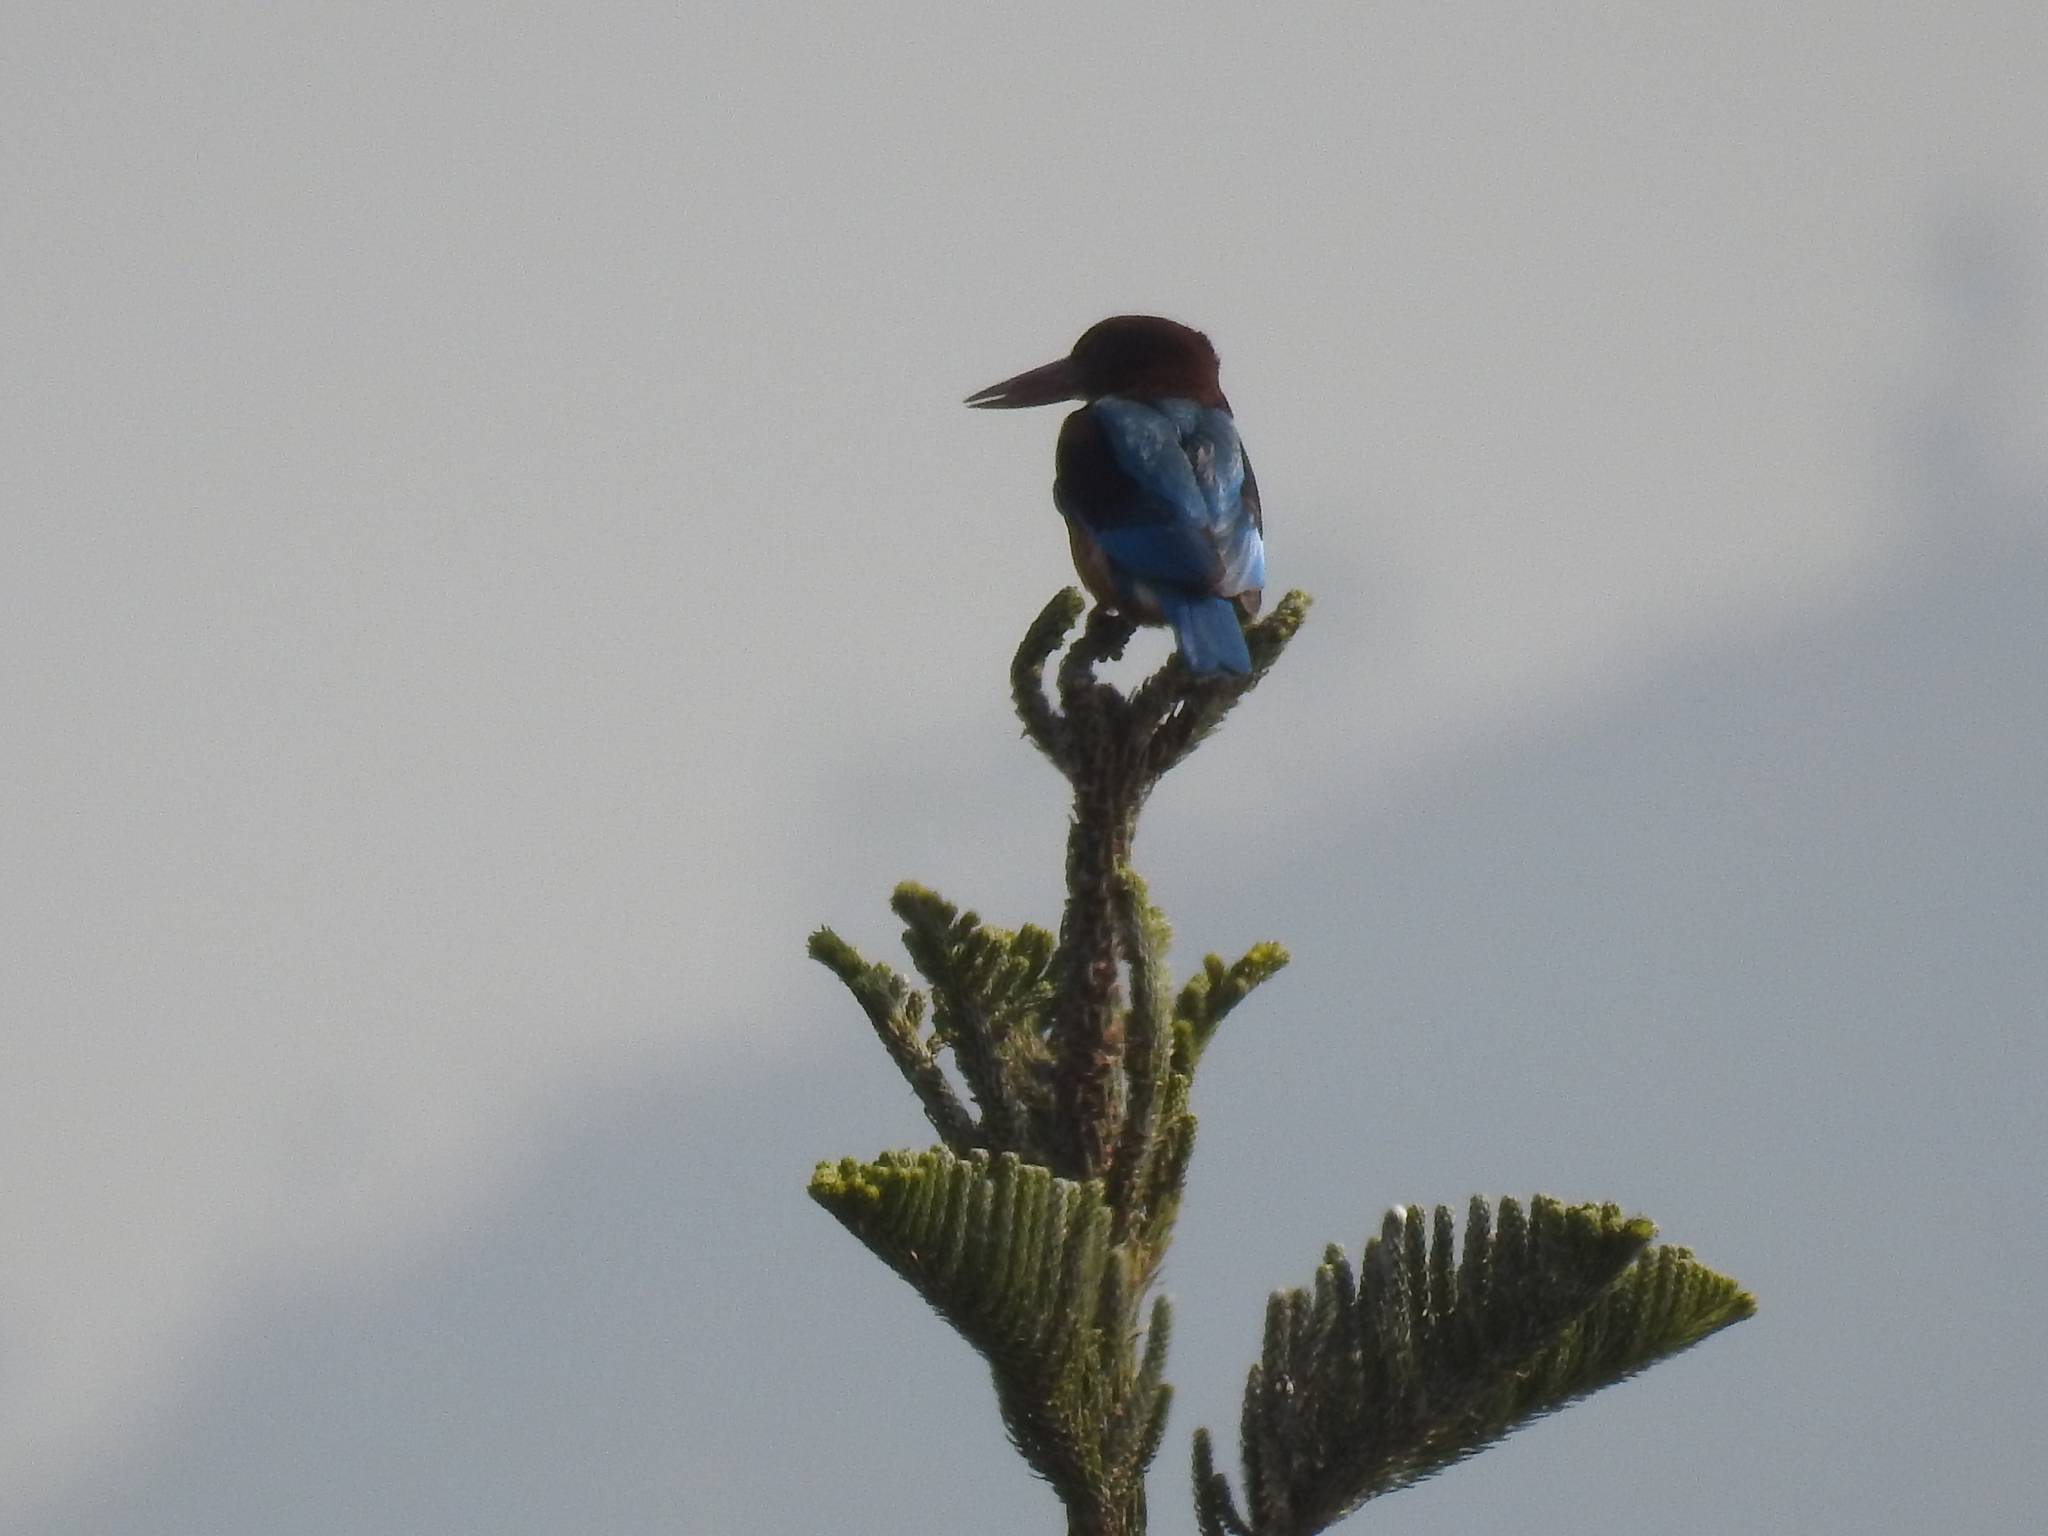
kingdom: Animalia
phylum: Chordata
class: Aves
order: Coraciiformes
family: Alcedinidae
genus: Halcyon
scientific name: Halcyon smyrnensis
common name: White-throated kingfisher
